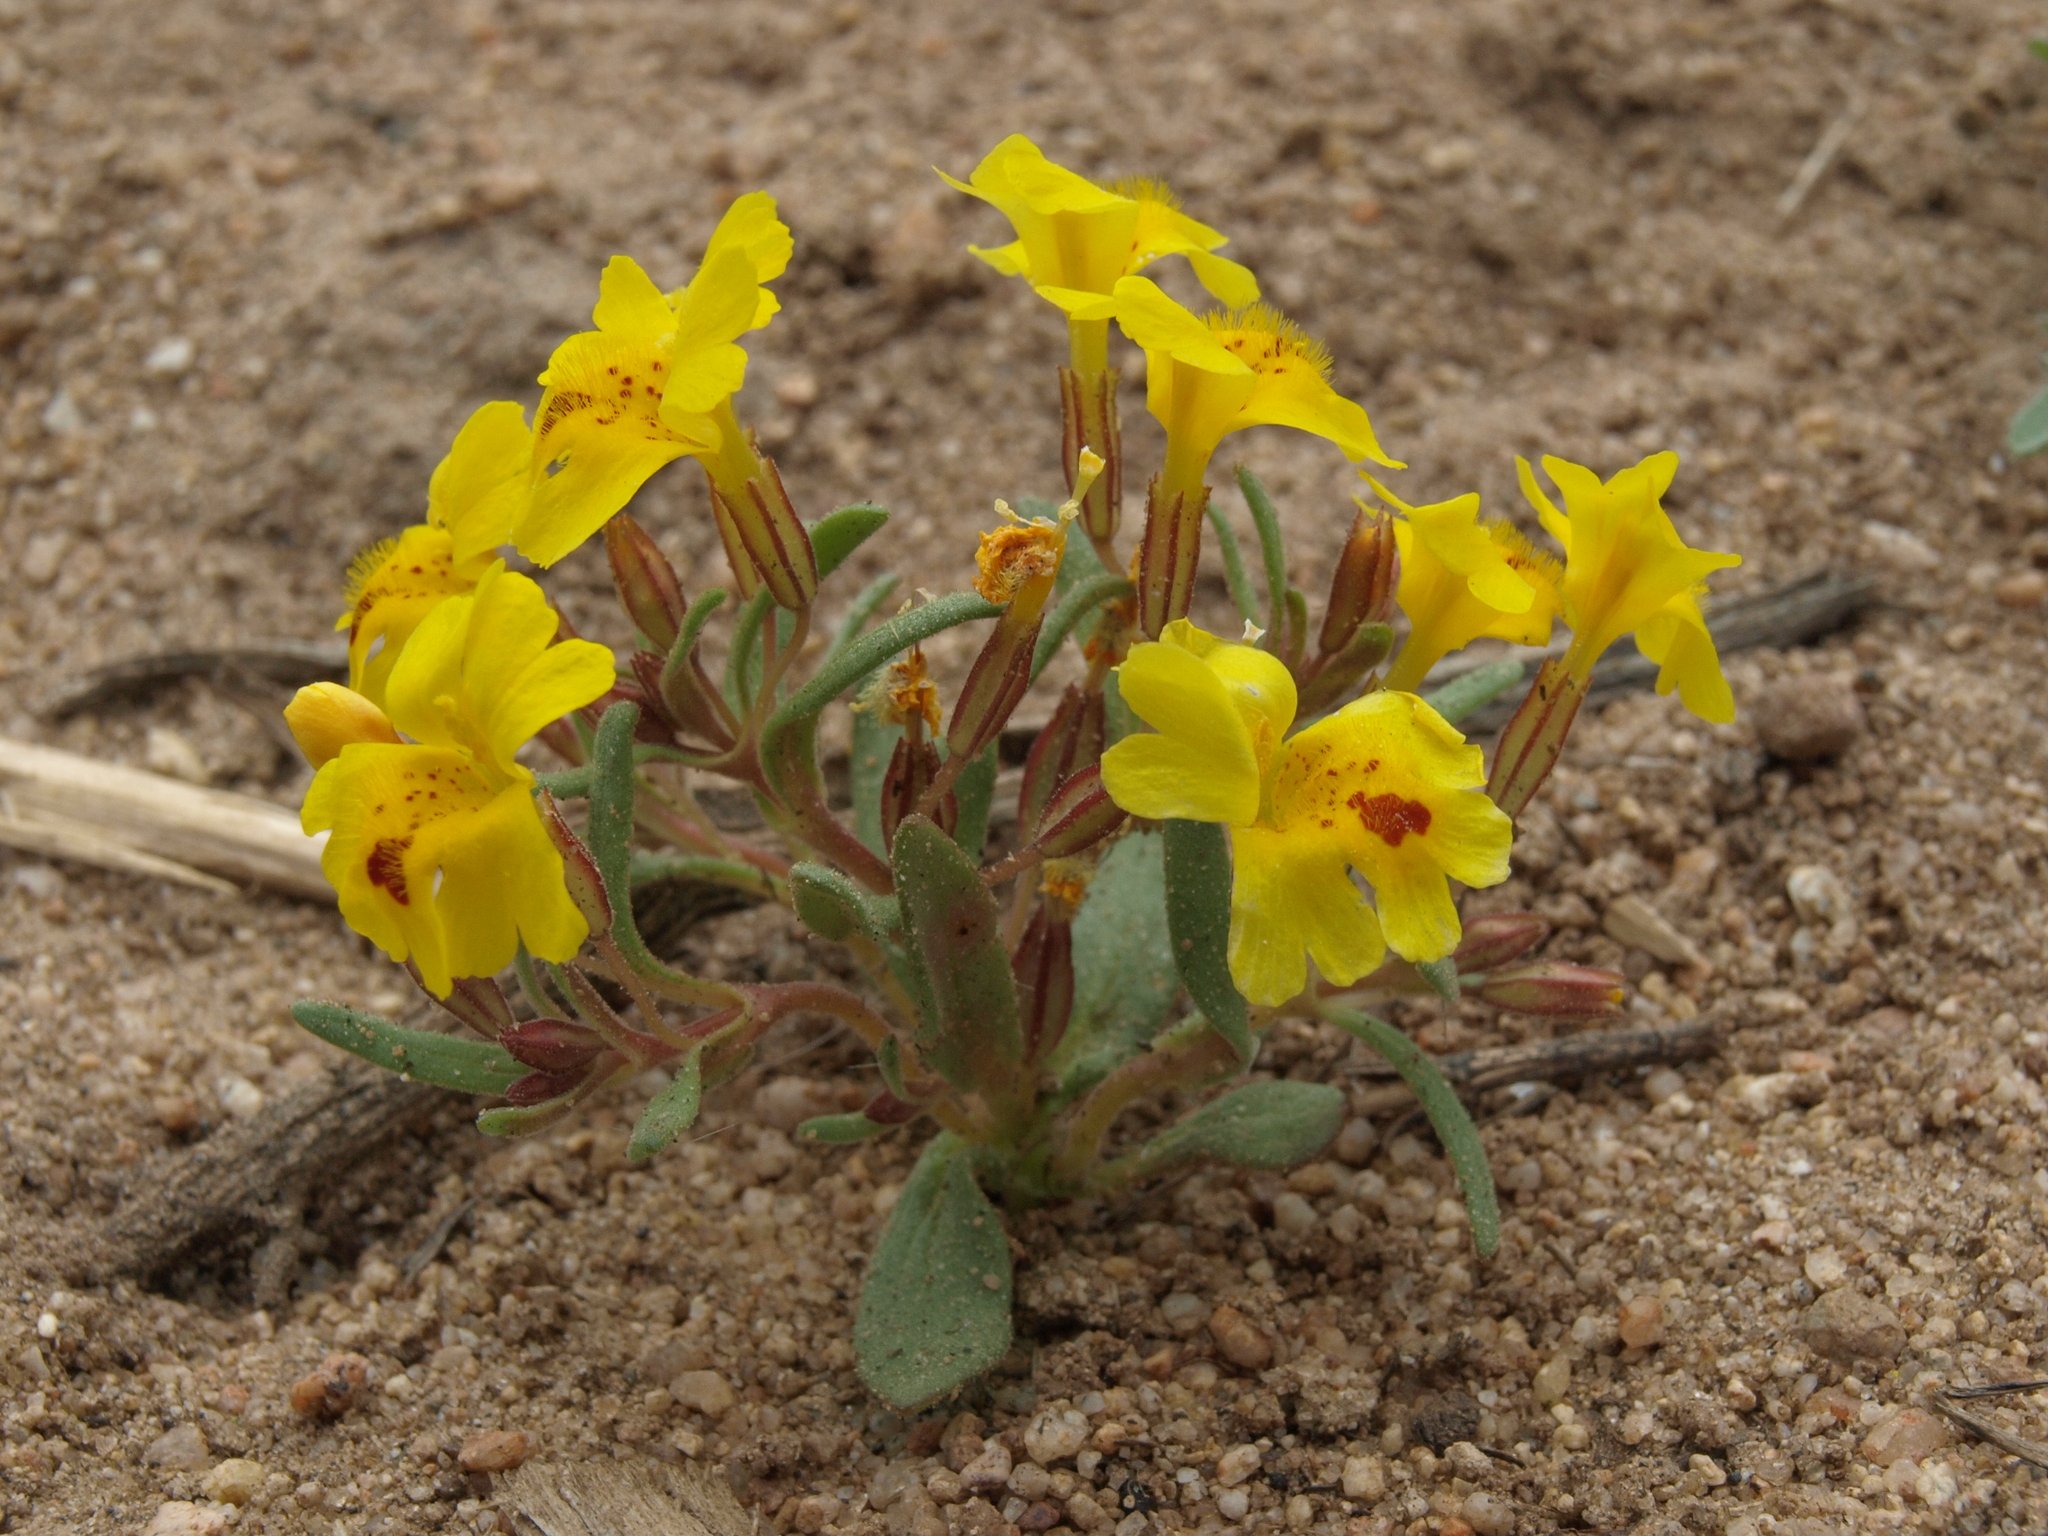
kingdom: Plantae
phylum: Tracheophyta
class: Magnoliopsida
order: Lamiales
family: Phrymaceae
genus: Erythranthe
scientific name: Erythranthe carsonensis
